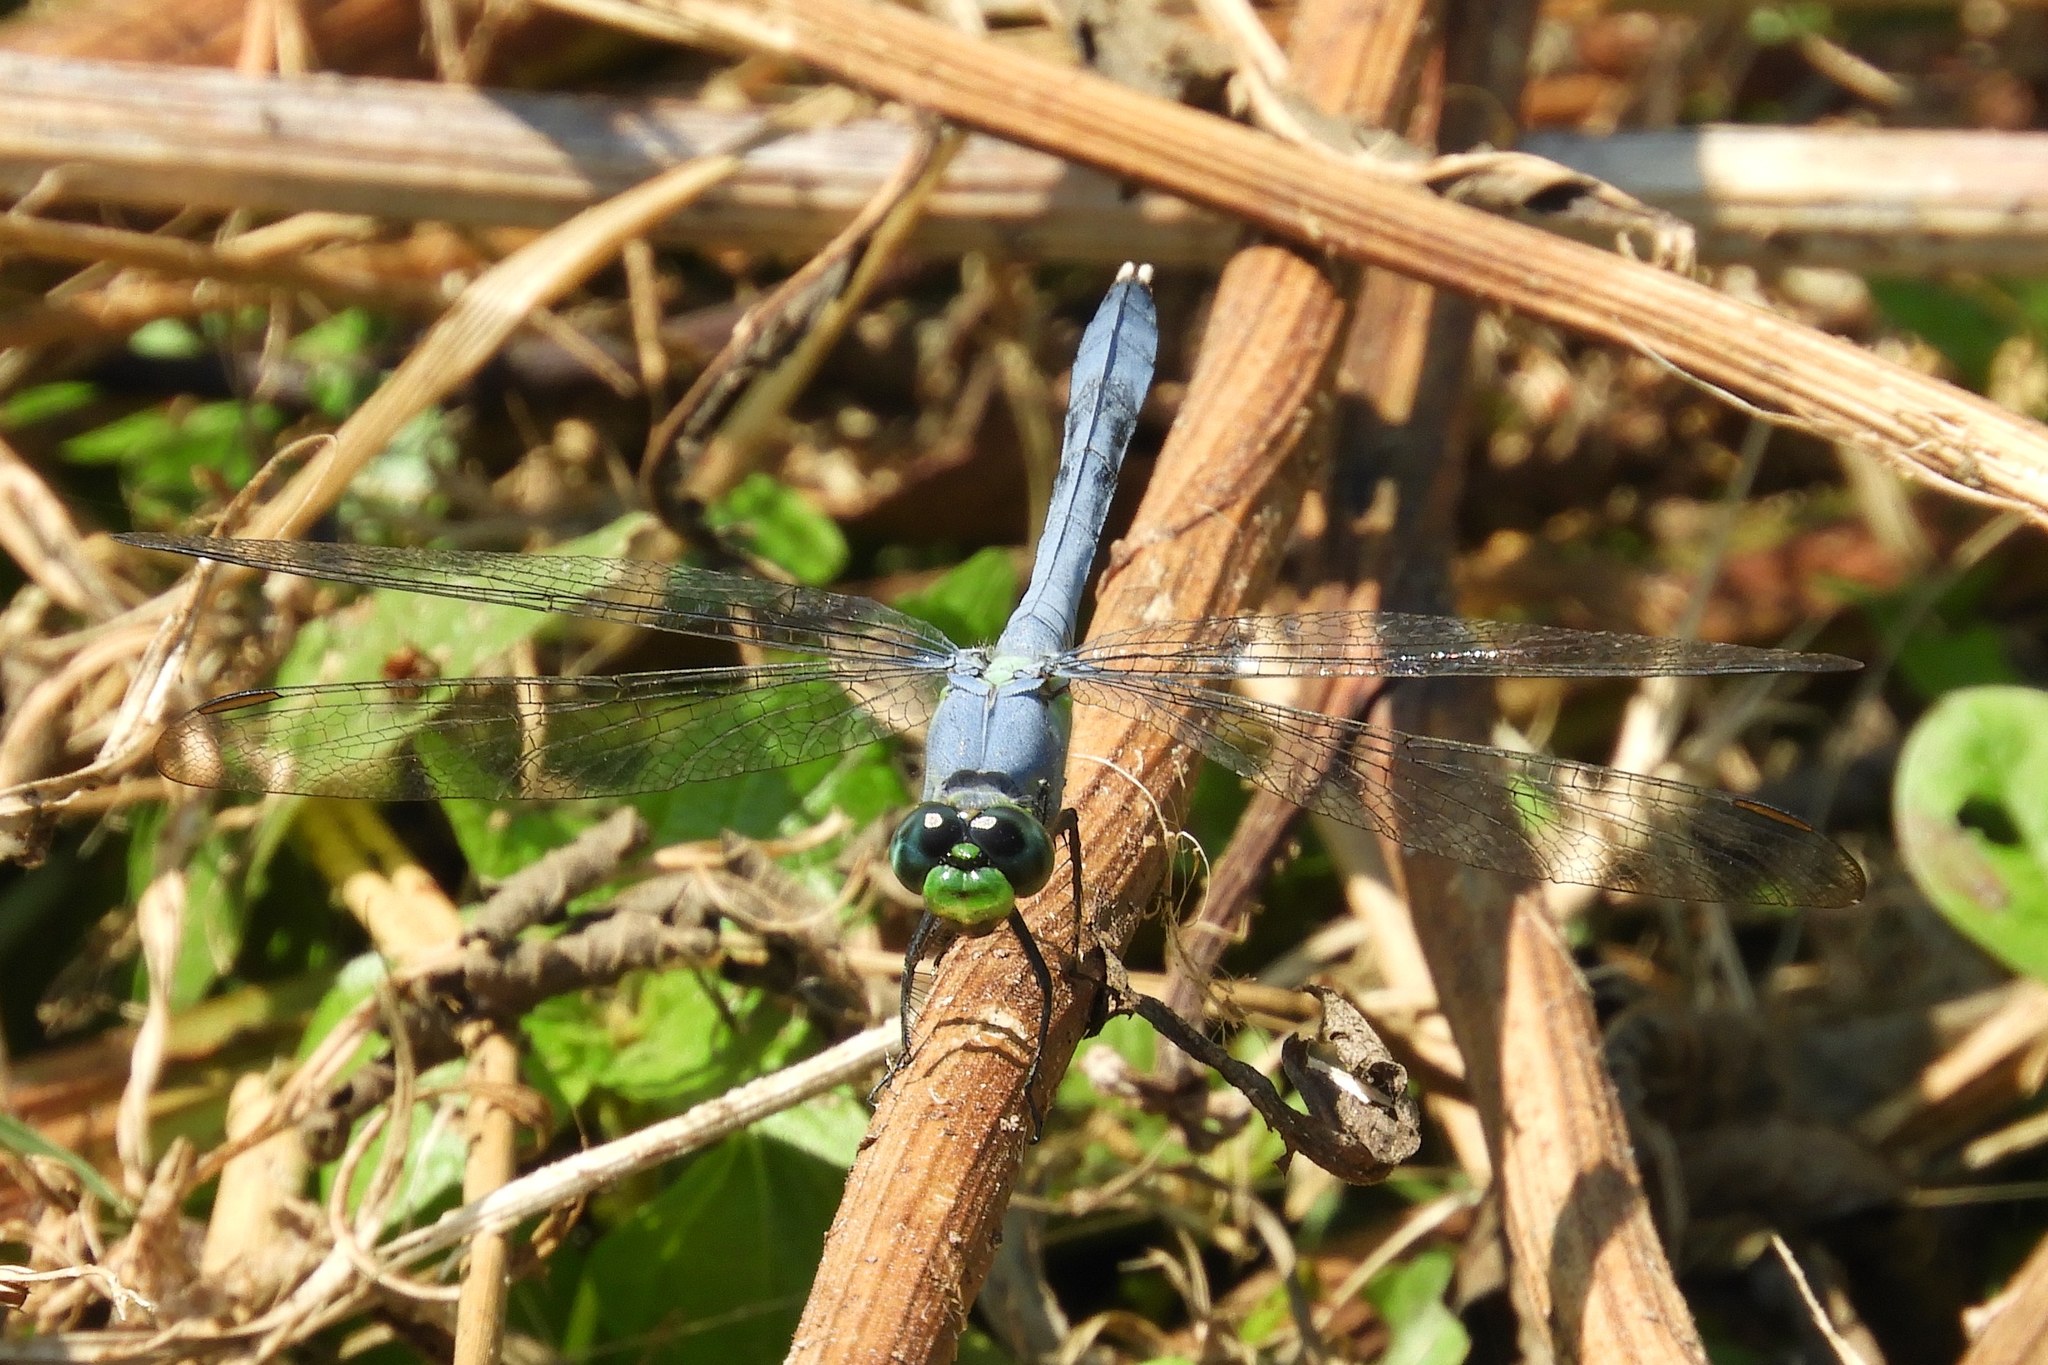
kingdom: Animalia
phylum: Arthropoda
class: Insecta
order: Odonata
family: Libellulidae
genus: Erythemis
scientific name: Erythemis simplicicollis
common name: Eastern pondhawk
